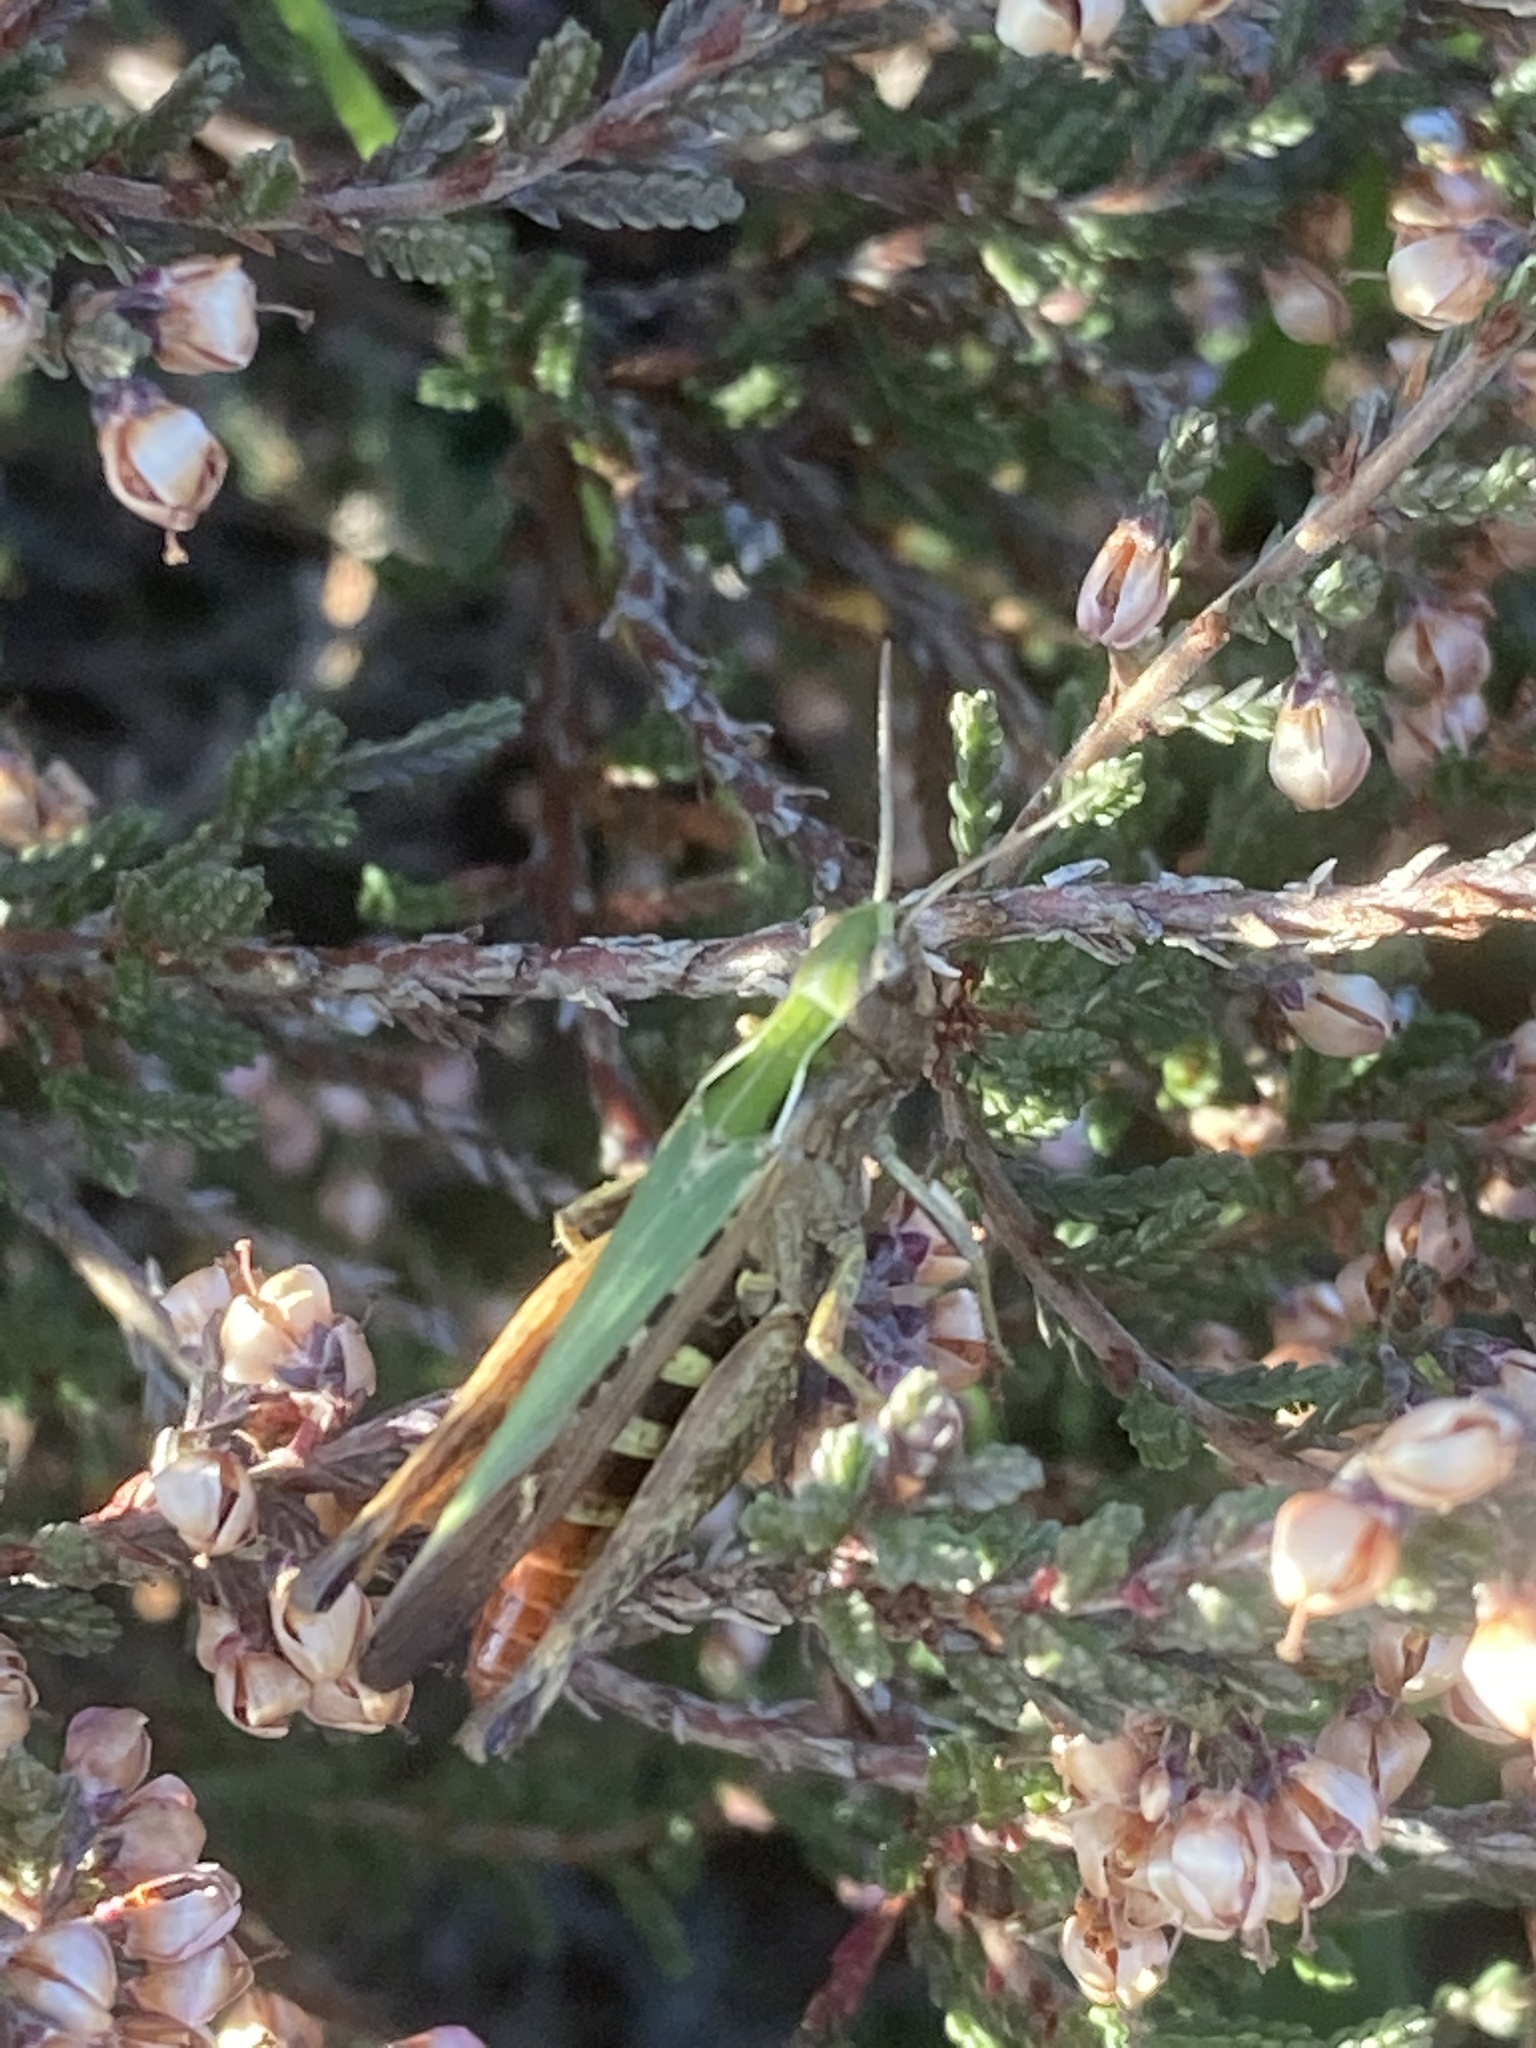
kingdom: Animalia
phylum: Arthropoda
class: Insecta
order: Orthoptera
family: Acrididae
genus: Omocestus
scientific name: Omocestus rufipes
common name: Woodland grasshopper
